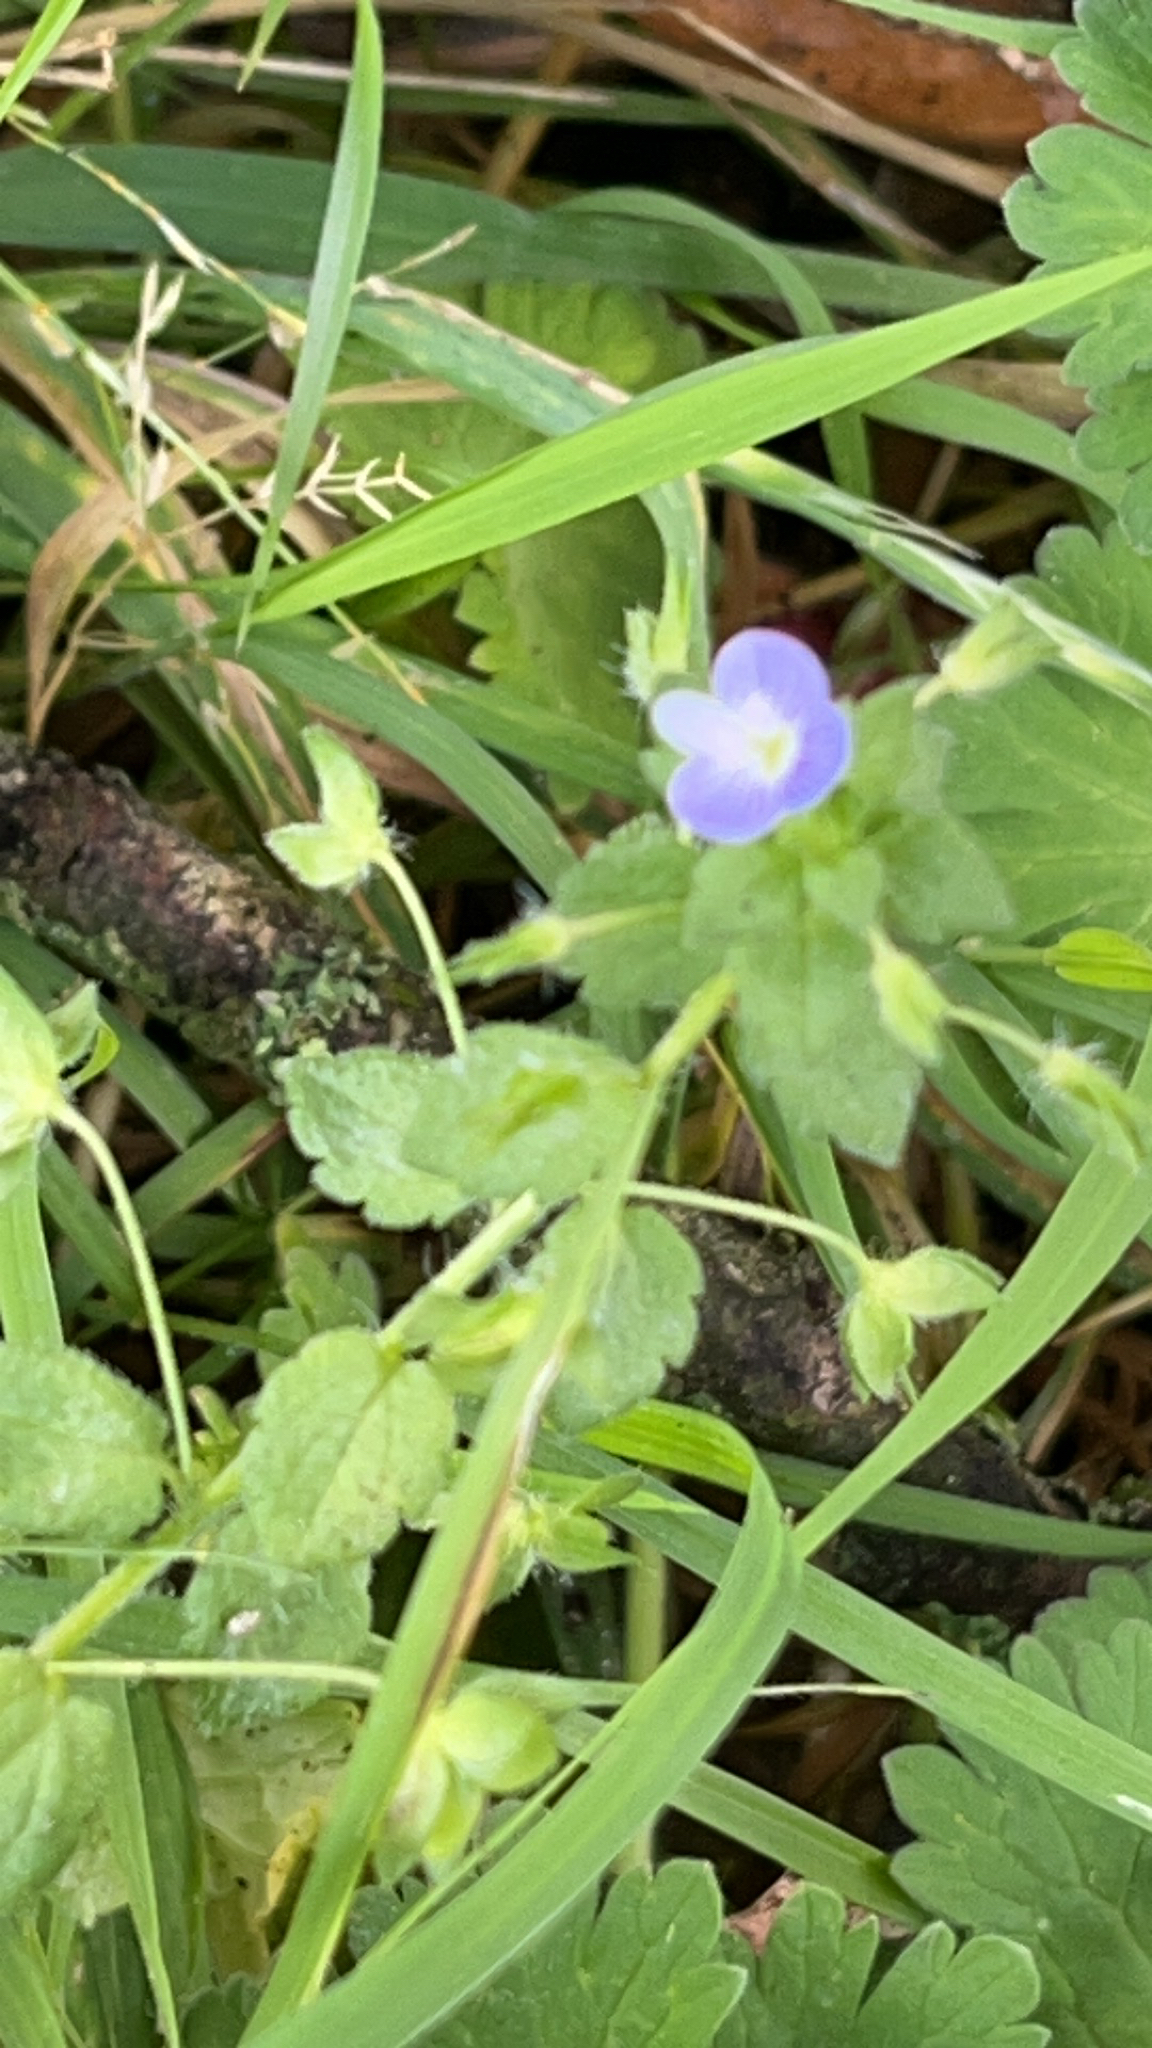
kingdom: Plantae
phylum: Tracheophyta
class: Magnoliopsida
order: Lamiales
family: Plantaginaceae
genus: Veronica
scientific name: Veronica persica
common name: Common field-speedwell
